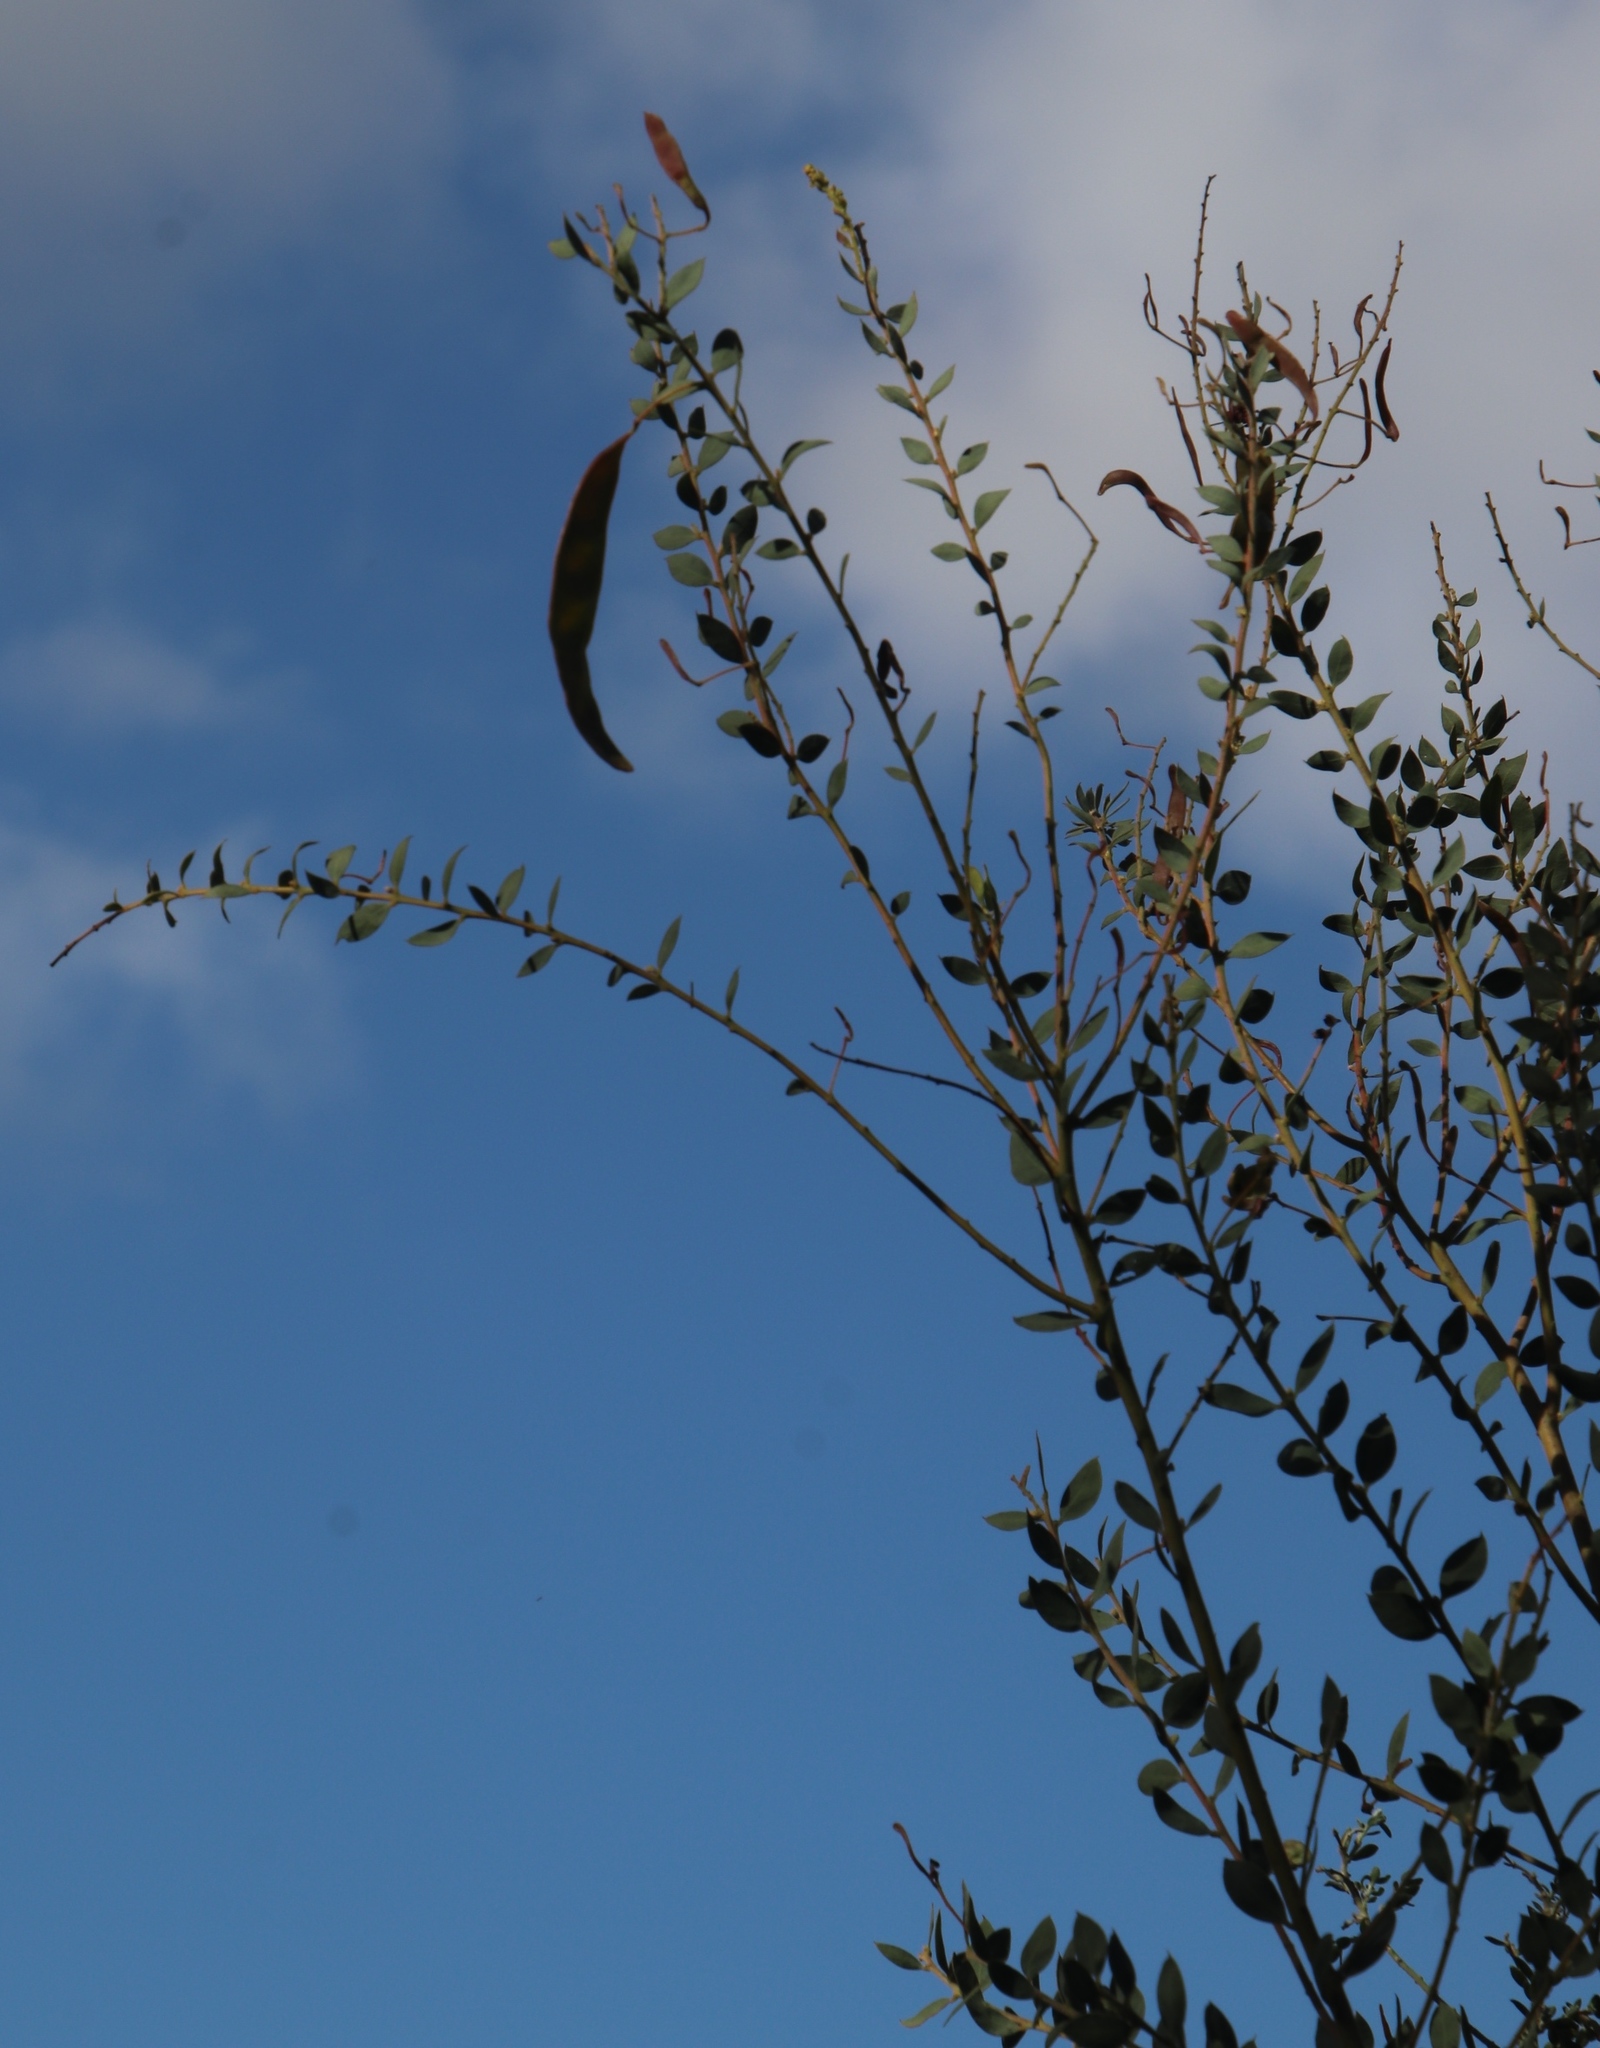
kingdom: Plantae
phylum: Tracheophyta
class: Magnoliopsida
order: Fabales
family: Fabaceae
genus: Acacia
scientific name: Acacia piligera
